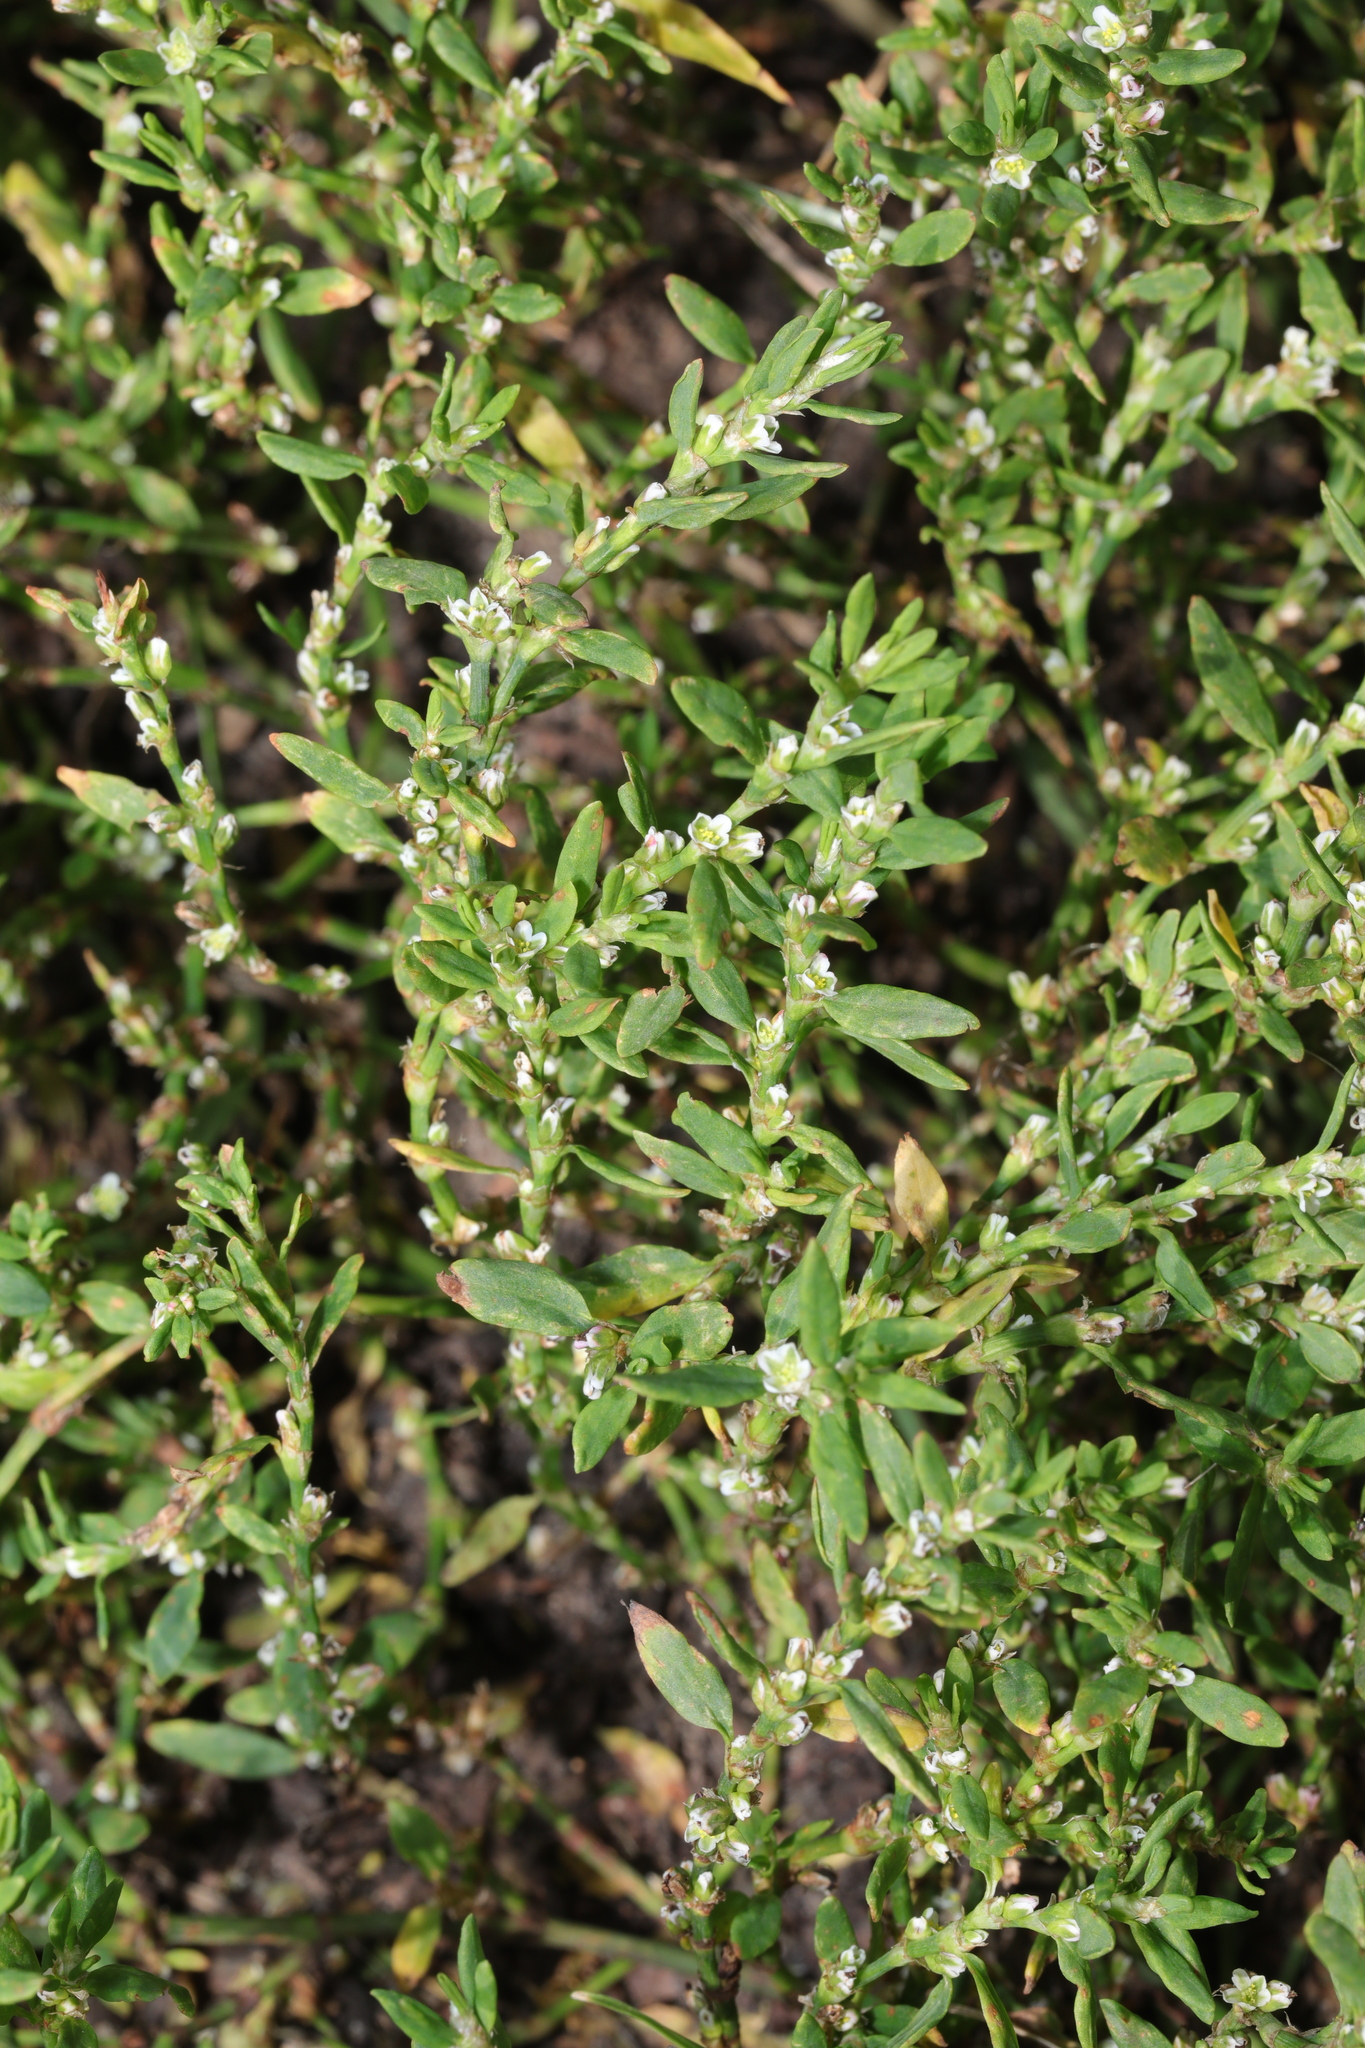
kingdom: Plantae
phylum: Tracheophyta
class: Magnoliopsida
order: Caryophyllales
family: Polygonaceae
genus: Polygonum
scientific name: Polygonum aviculare
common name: Prostrate knotweed
